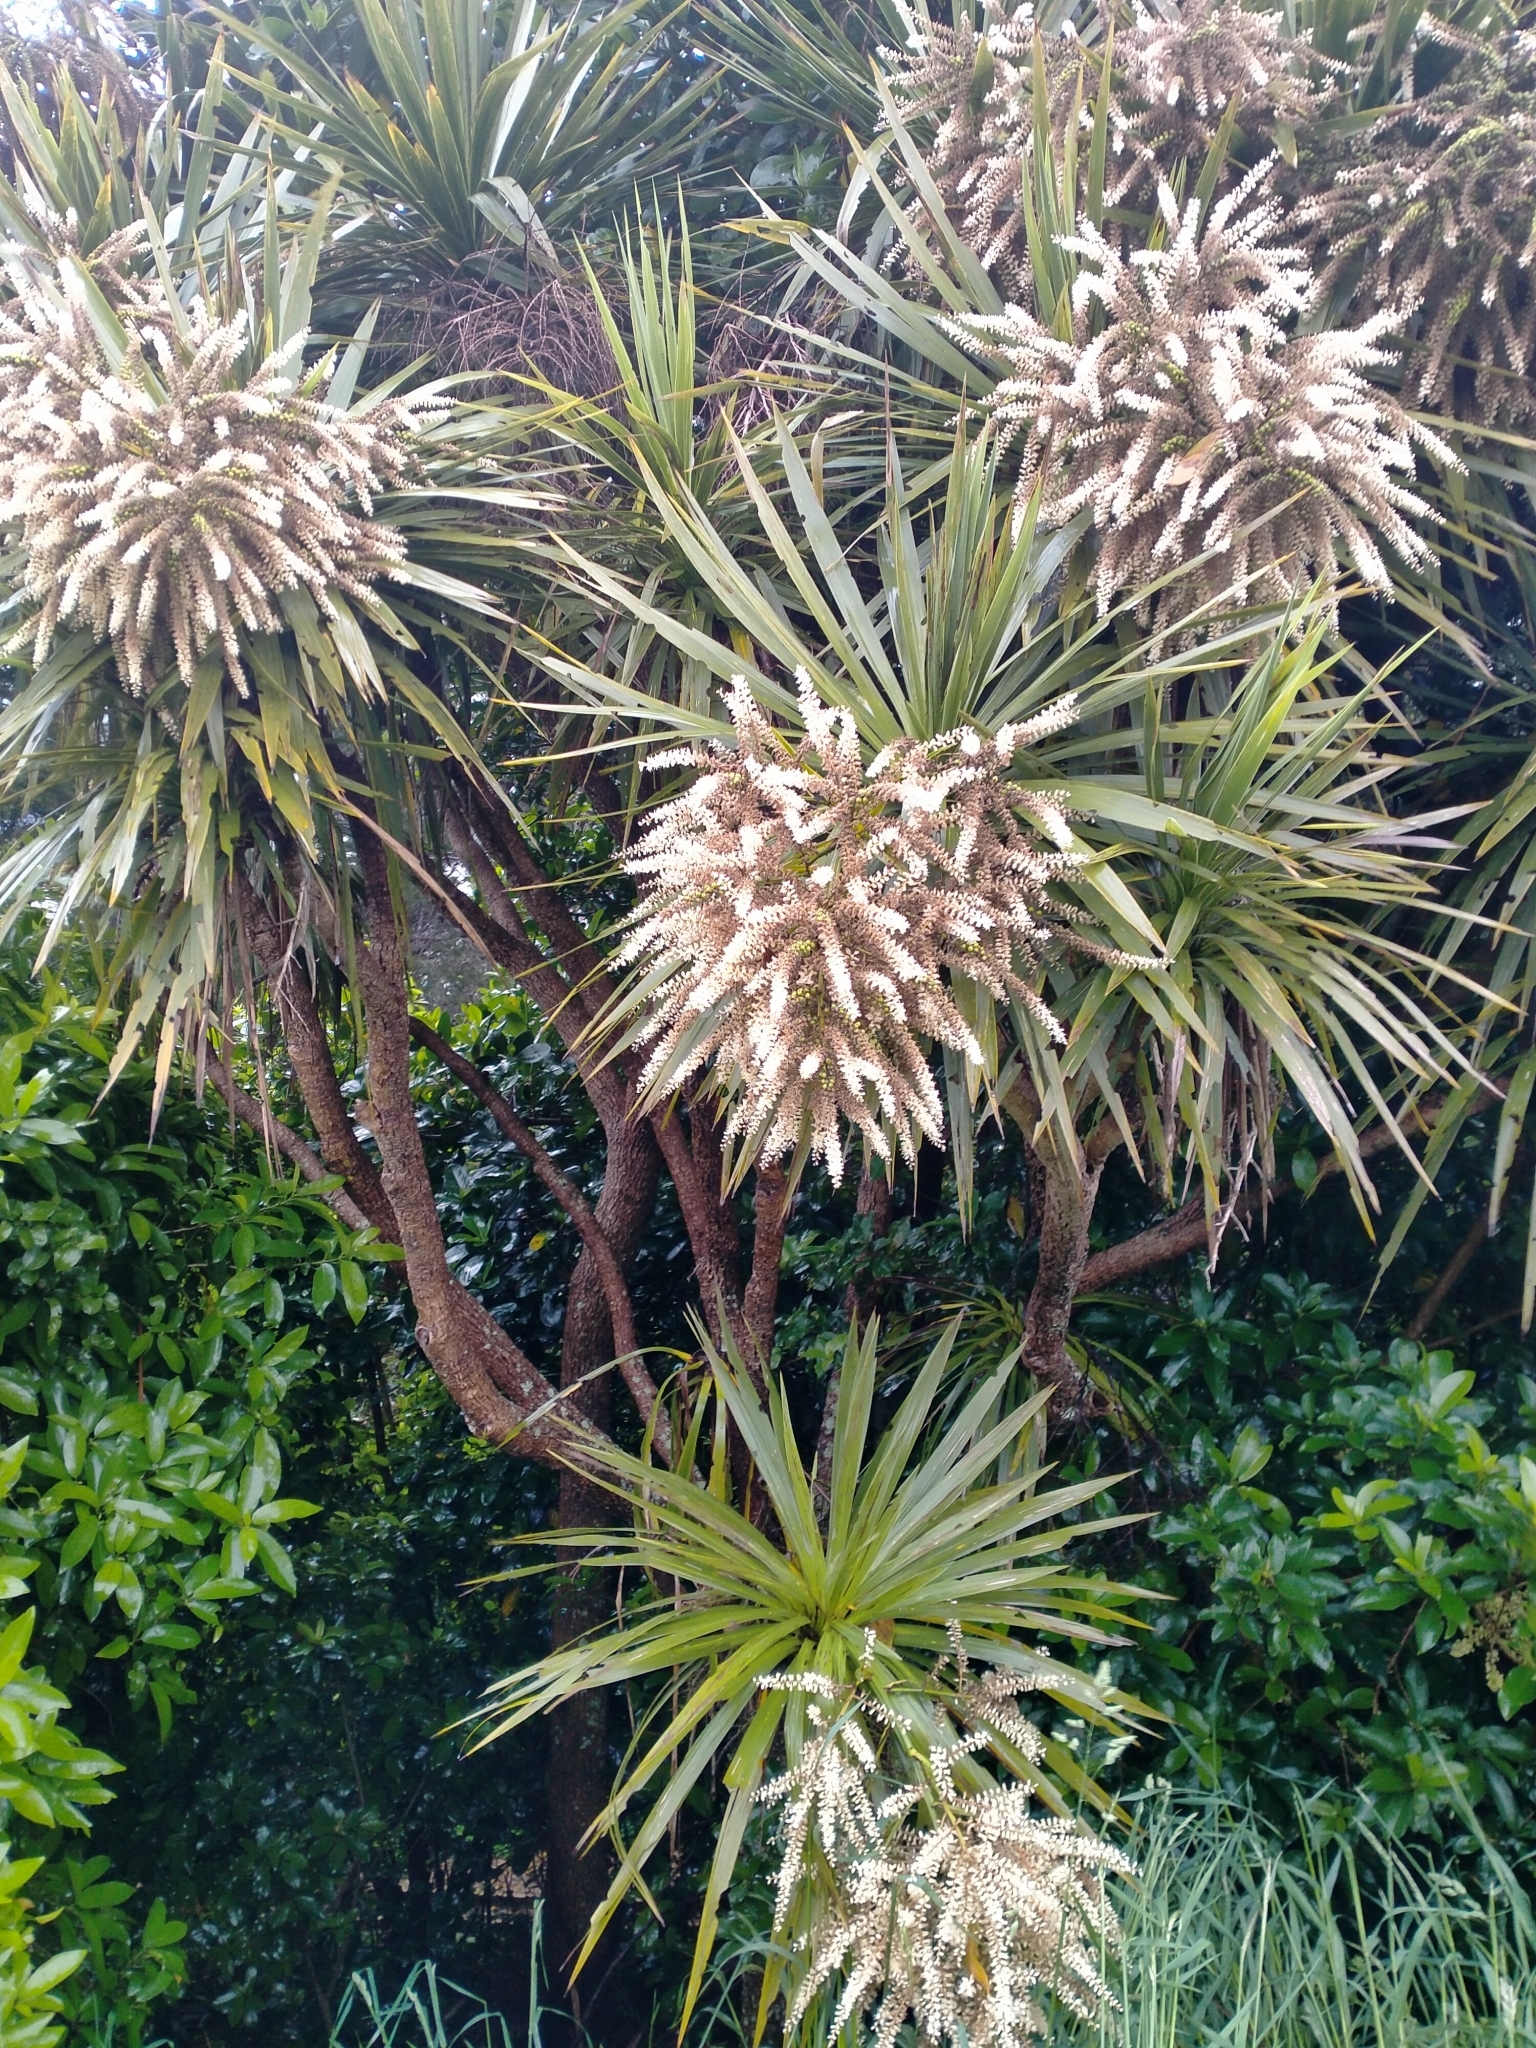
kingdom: Plantae
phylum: Tracheophyta
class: Liliopsida
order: Asparagales
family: Asparagaceae
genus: Cordyline
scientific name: Cordyline australis
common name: Cabbage-palm
